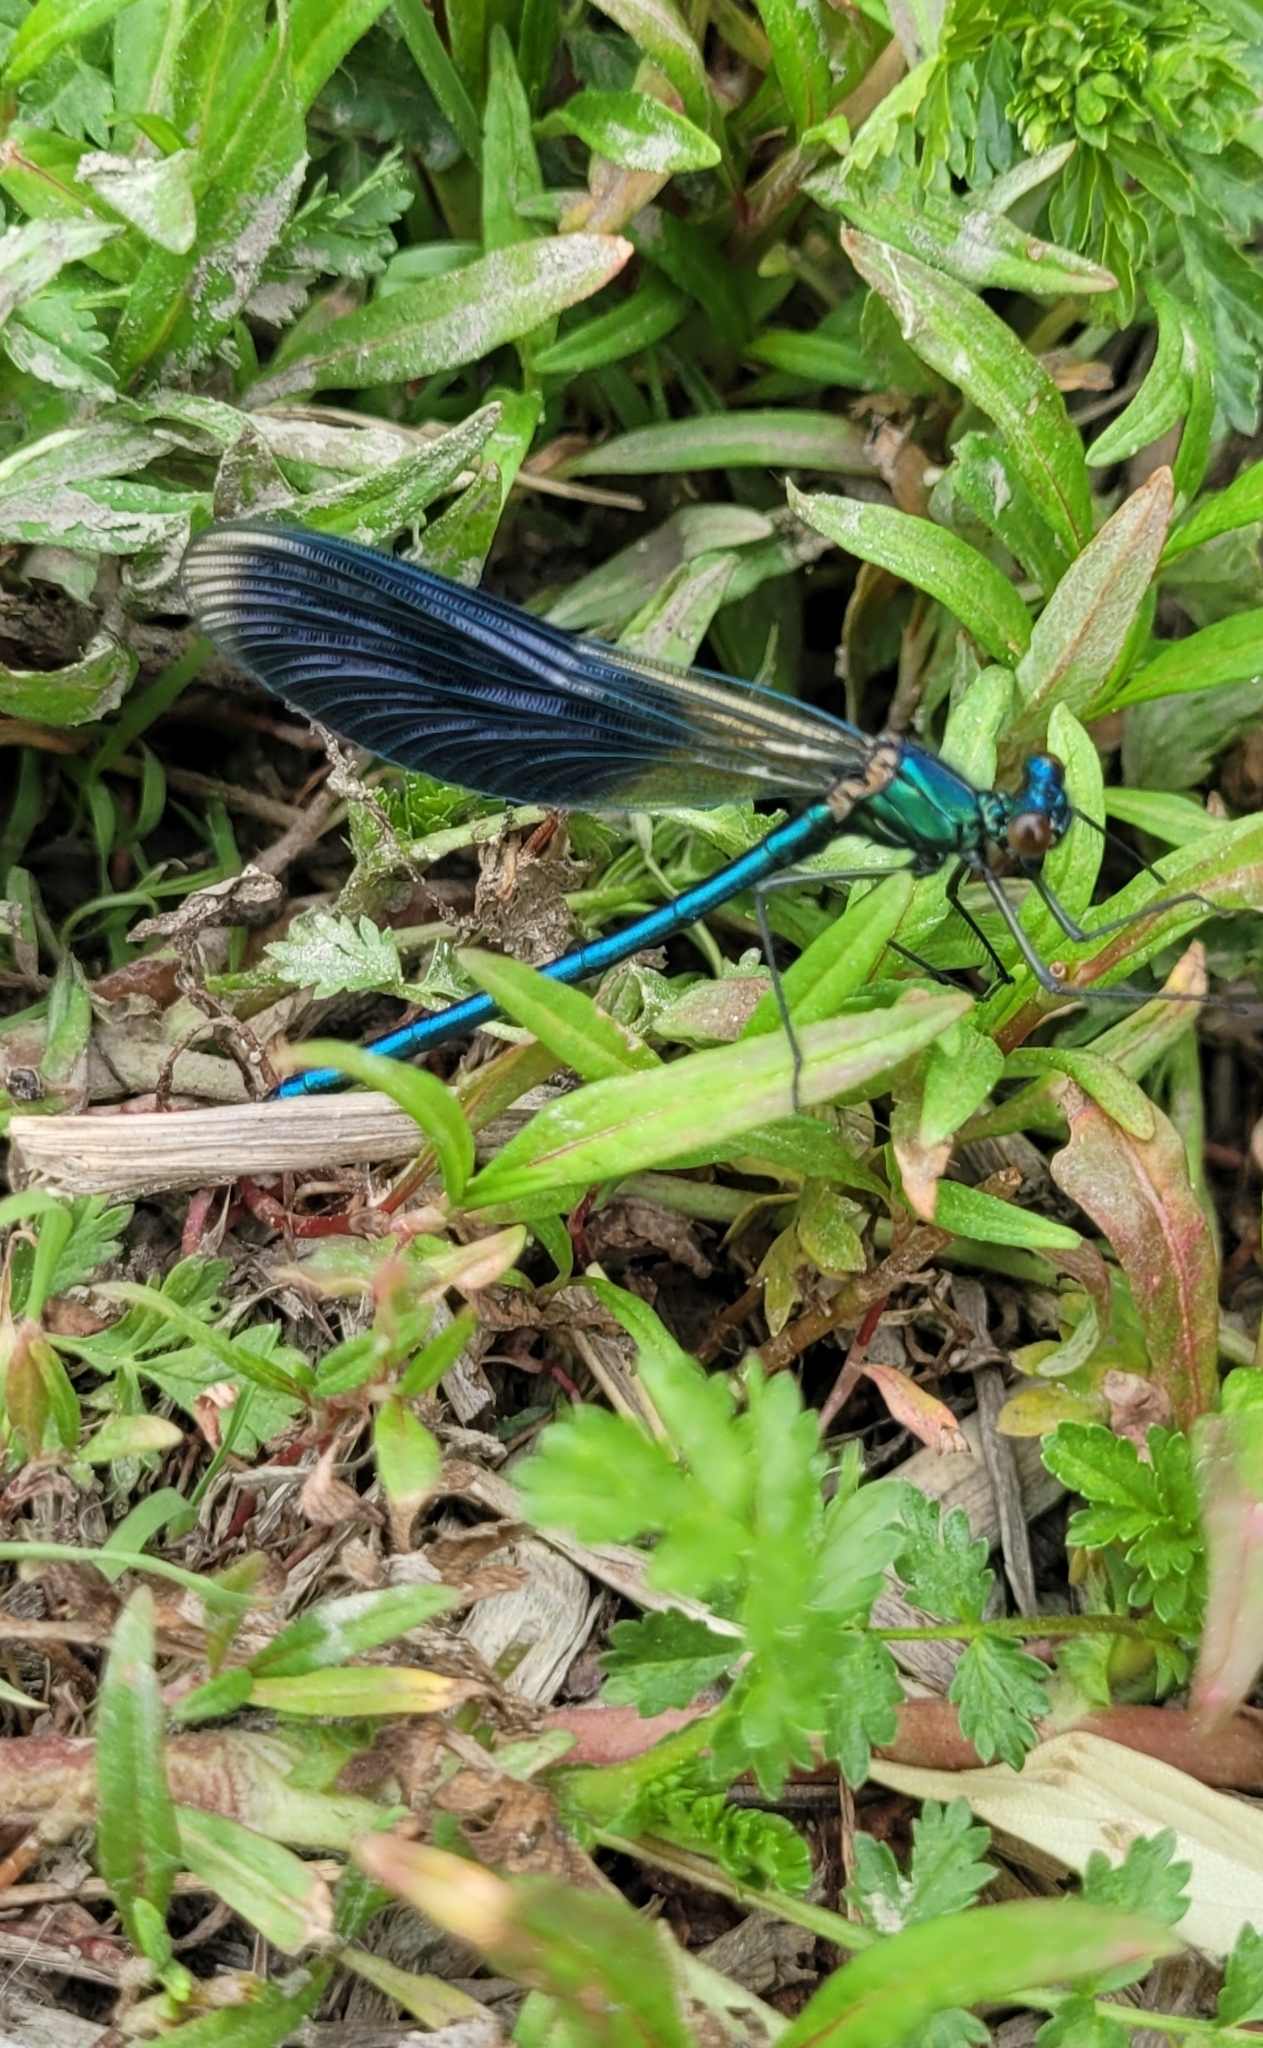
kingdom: Animalia
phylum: Arthropoda
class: Insecta
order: Odonata
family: Calopterygidae
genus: Calopteryx
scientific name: Calopteryx splendens
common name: Banded demoiselle
